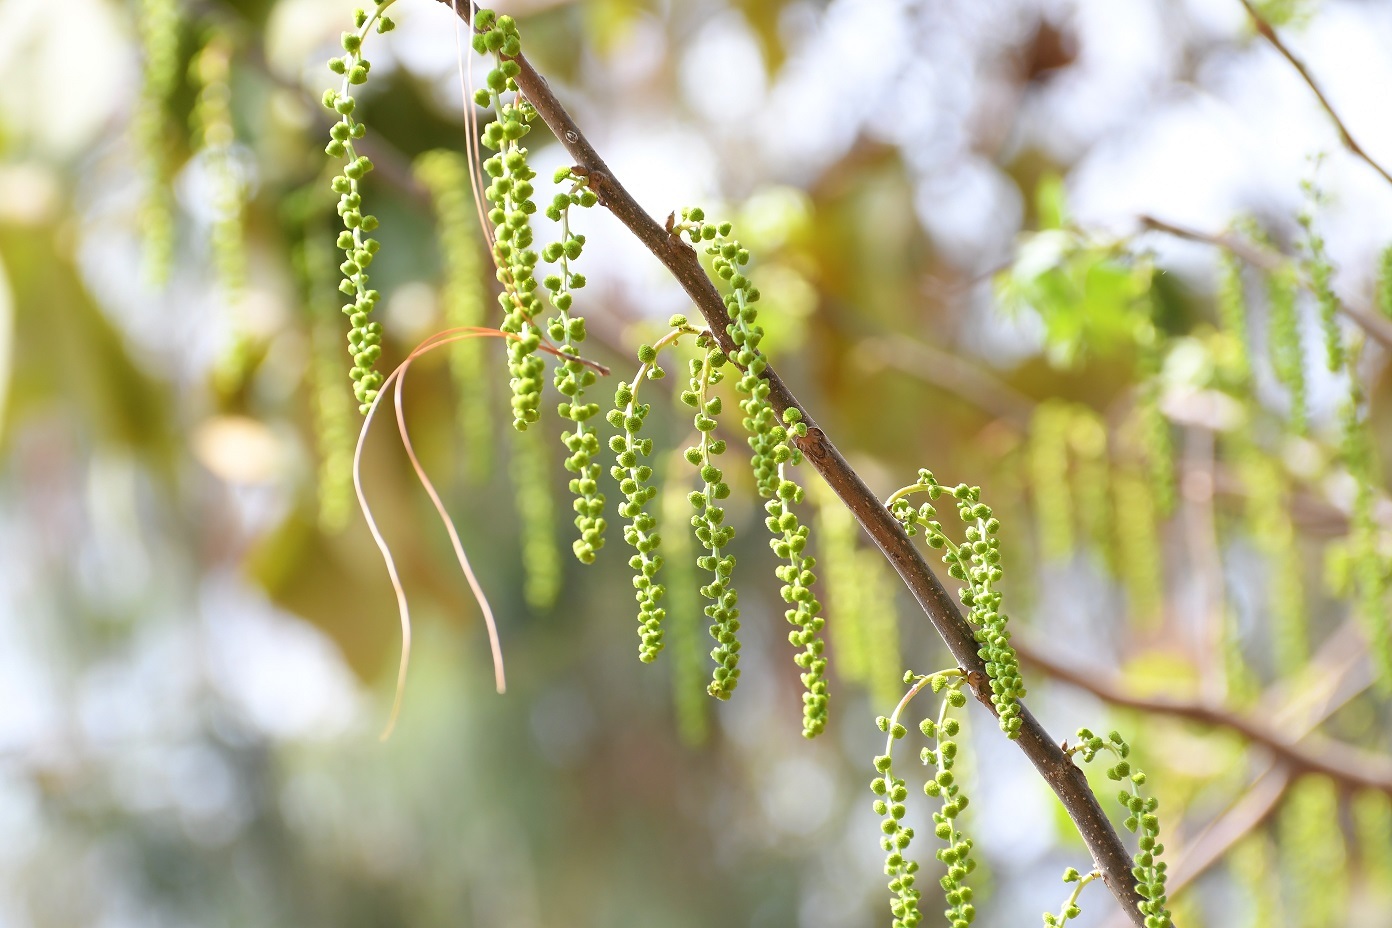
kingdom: Plantae
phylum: Tracheophyta
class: Magnoliopsida
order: Fagales
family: Juglandaceae
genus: Juglans
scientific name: Juglans olanchana
